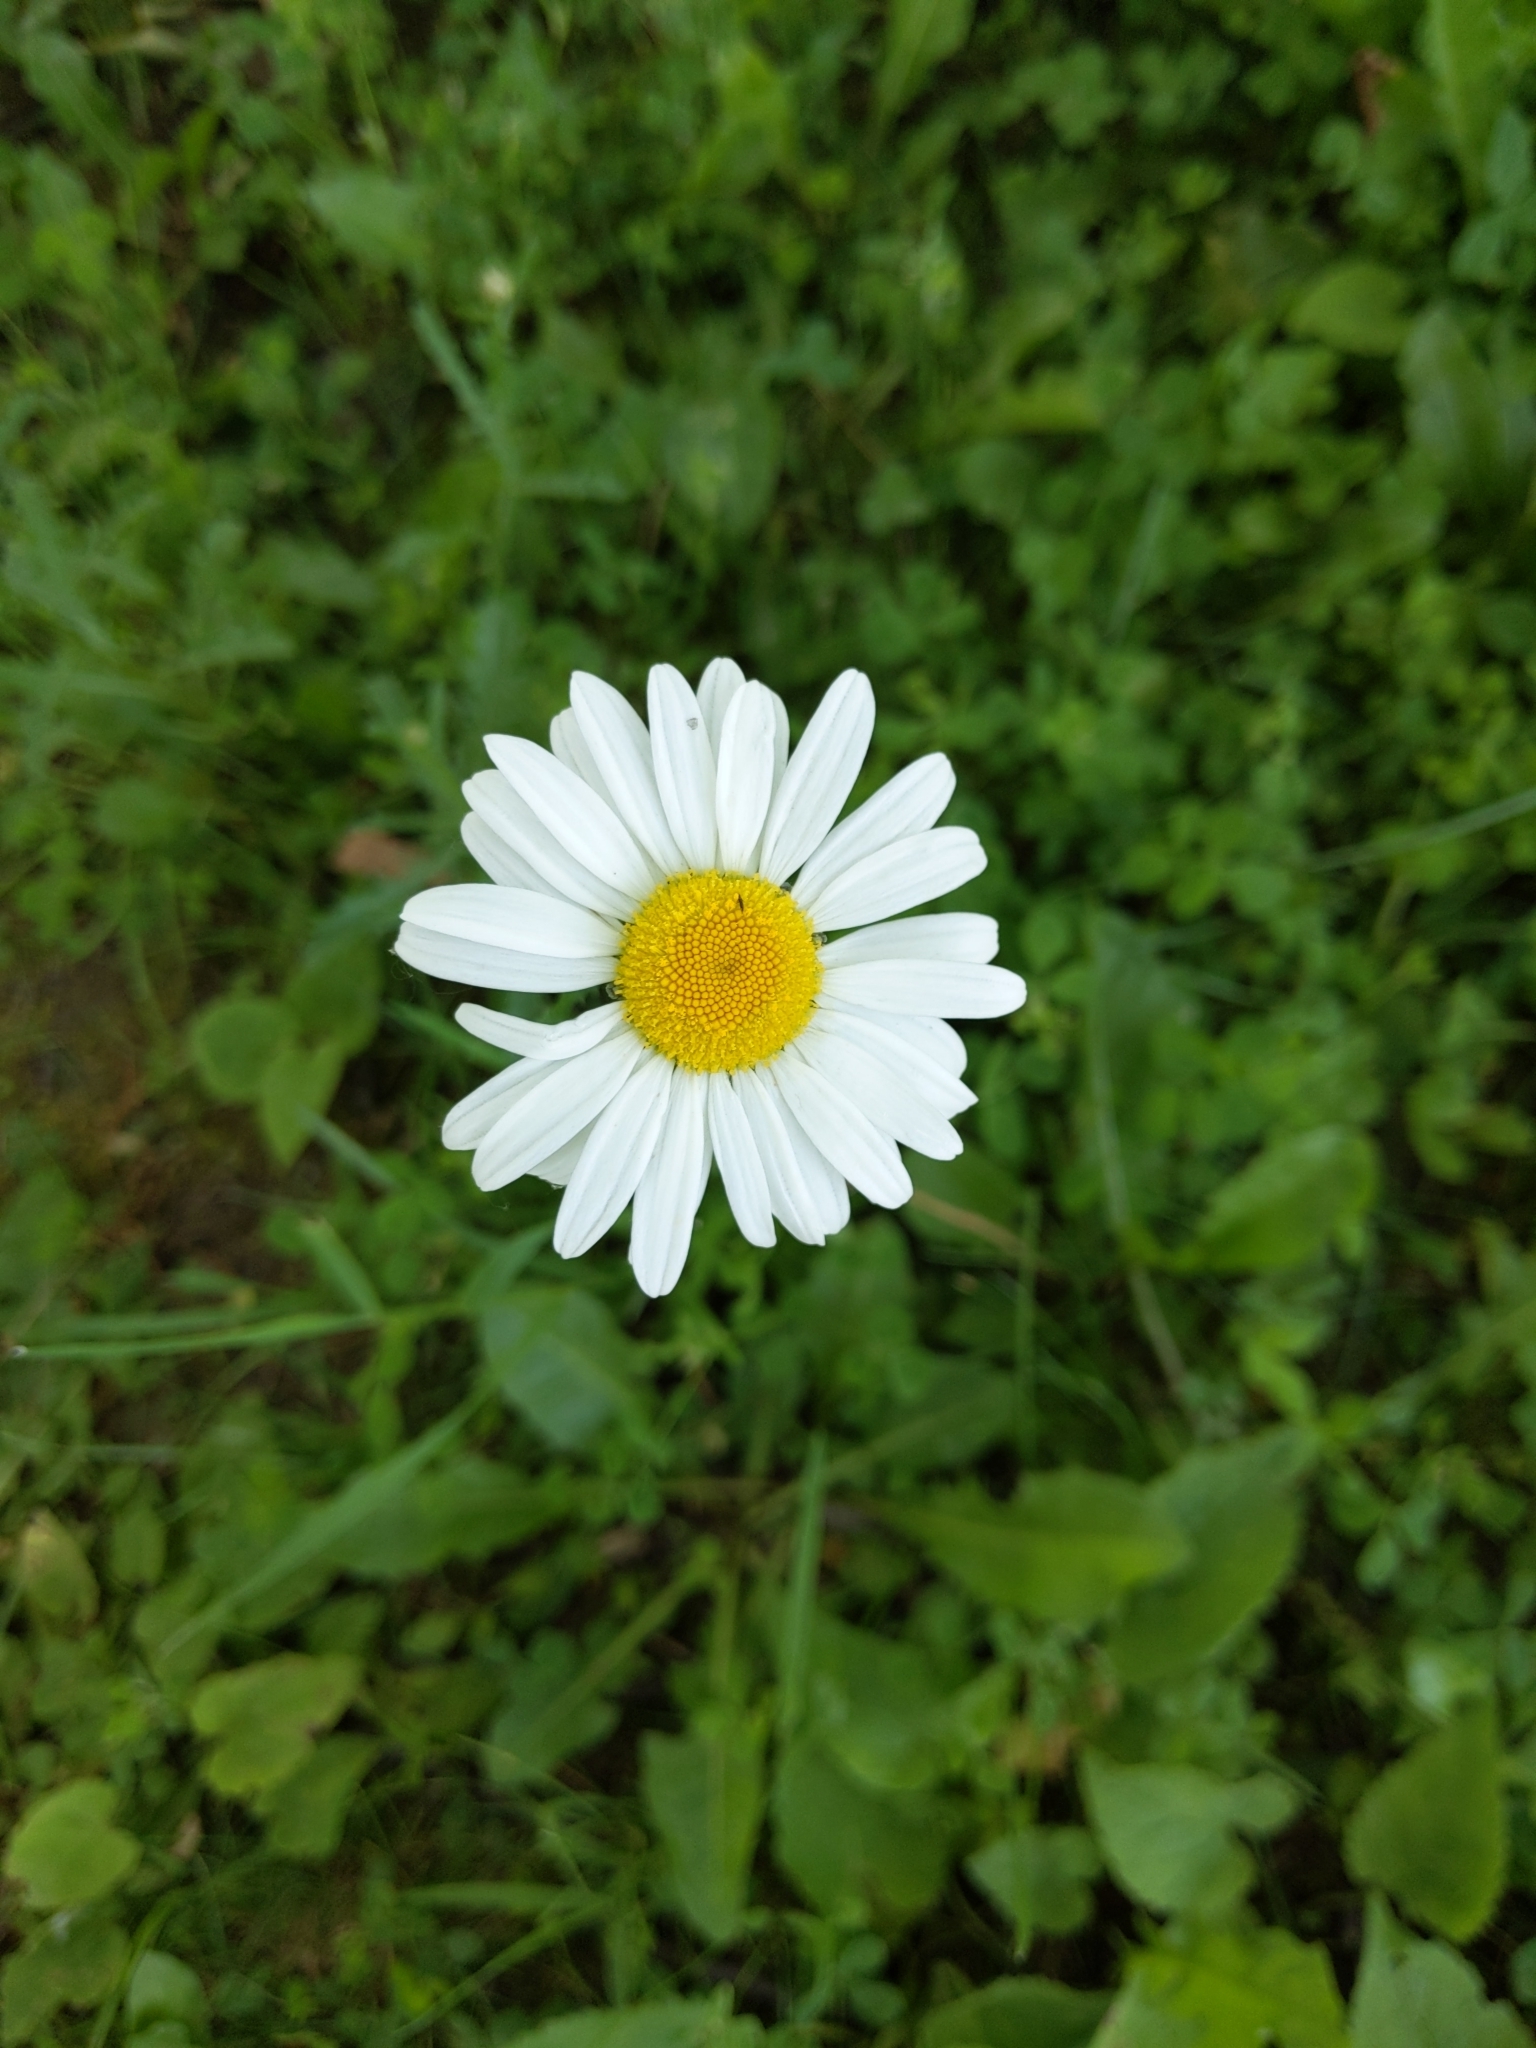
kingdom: Plantae
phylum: Tracheophyta
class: Magnoliopsida
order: Asterales
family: Asteraceae
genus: Leucanthemum
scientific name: Leucanthemum vulgare
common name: Oxeye daisy
